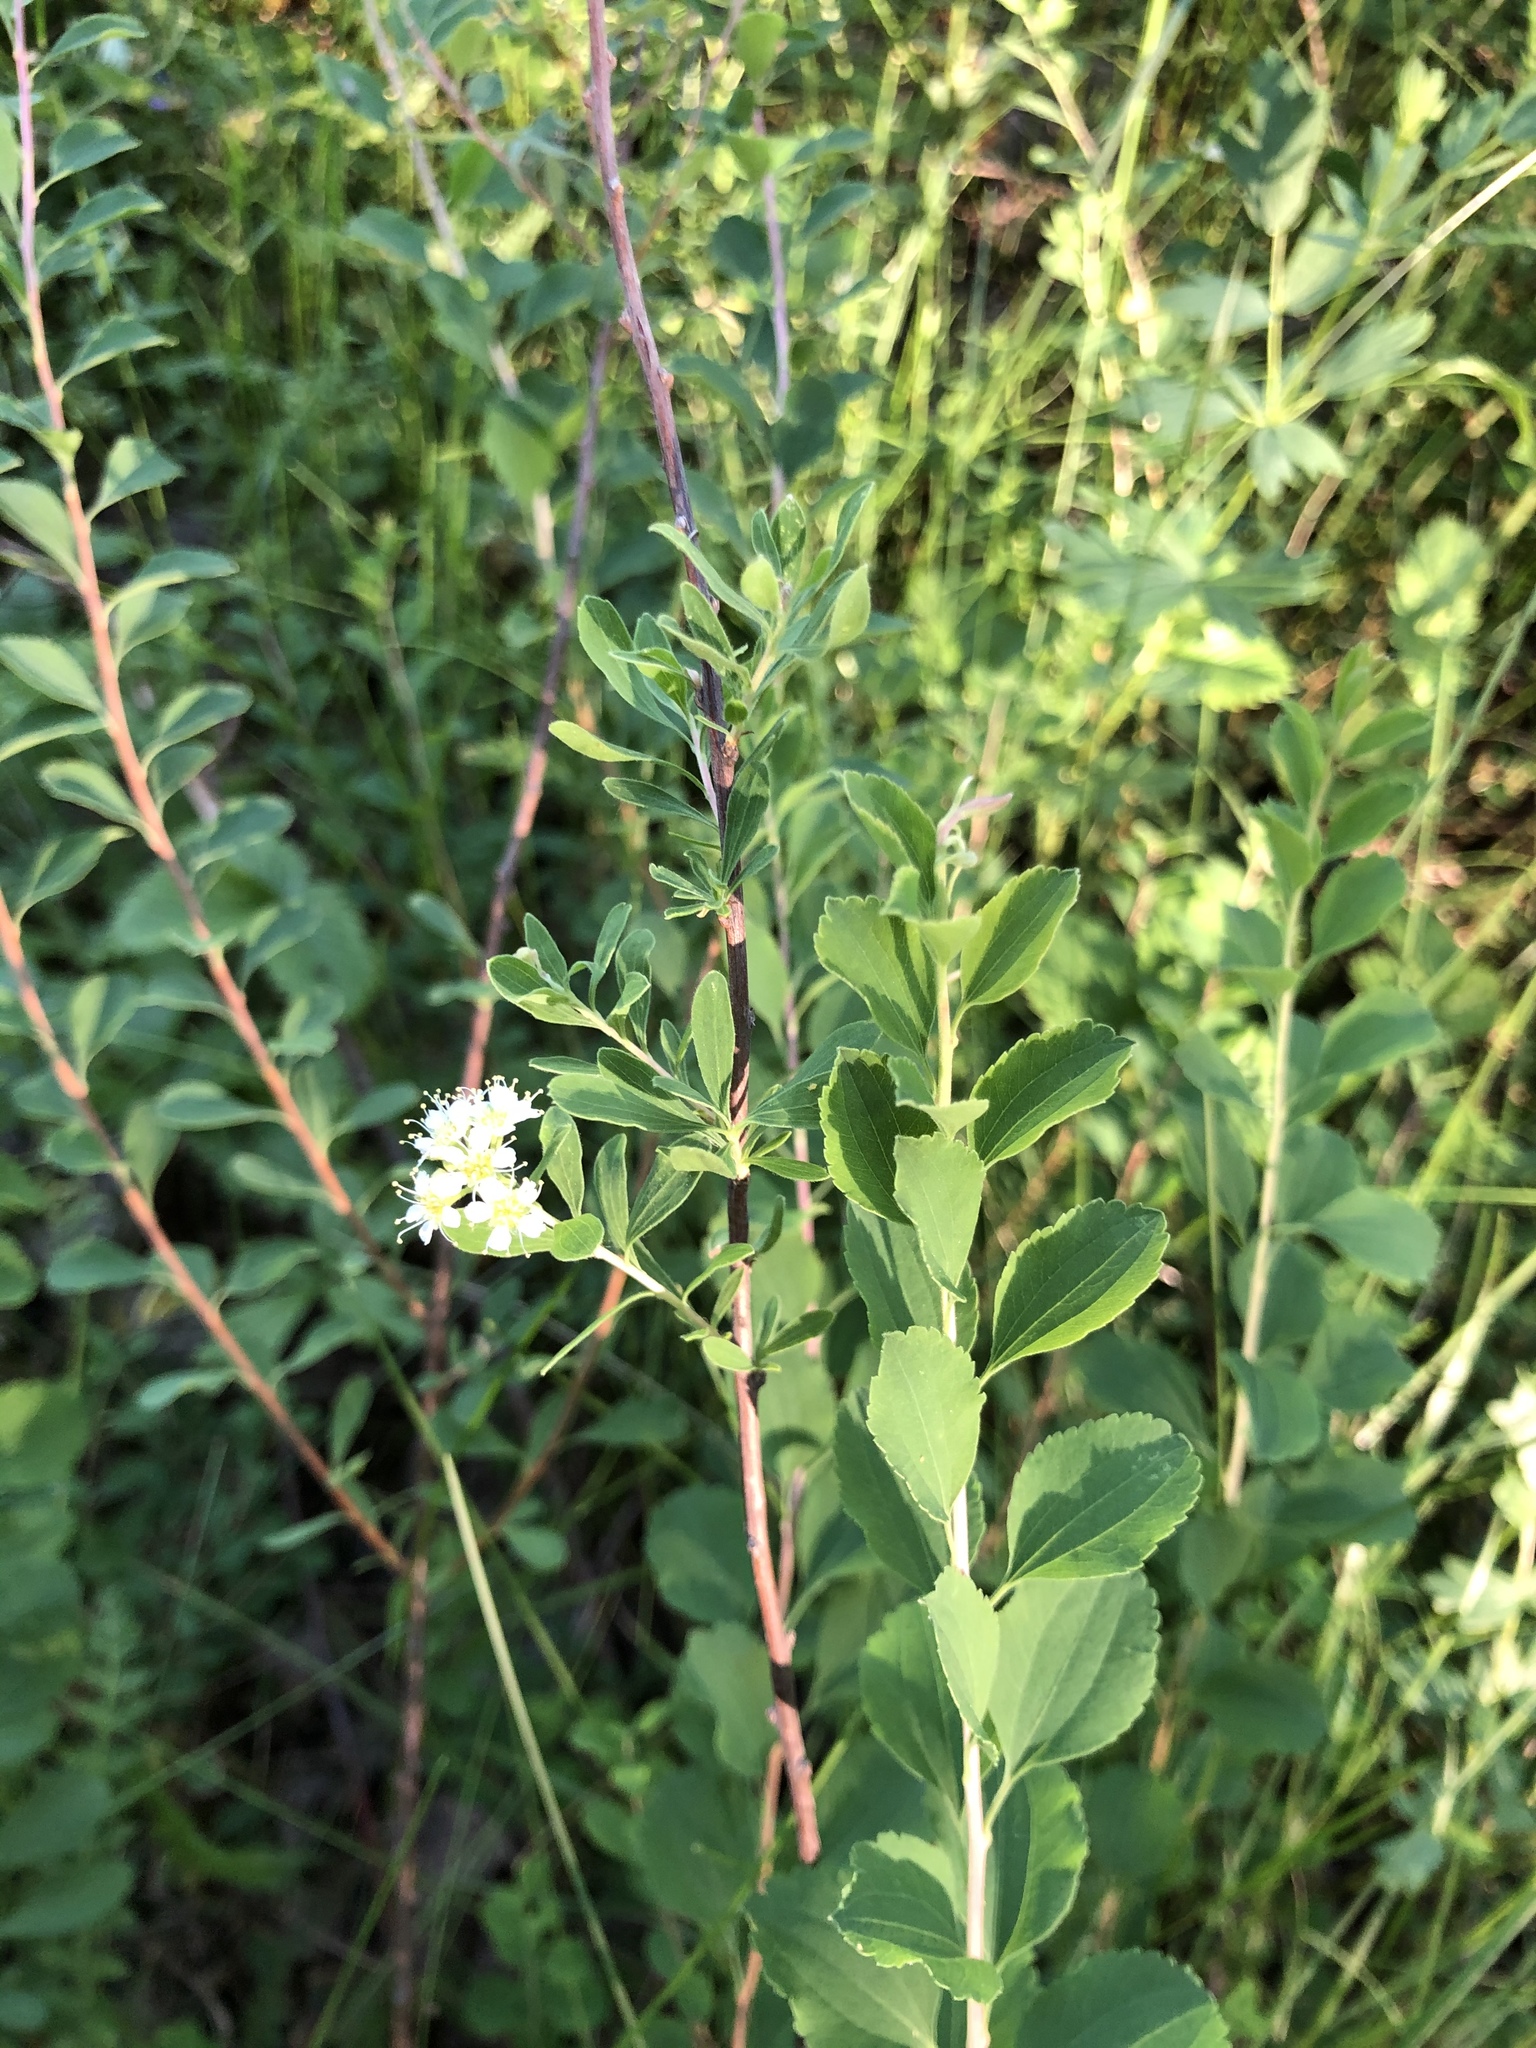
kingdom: Plantae
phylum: Tracheophyta
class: Magnoliopsida
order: Rosales
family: Rosaceae
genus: Spiraea
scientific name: Spiraea crenata
